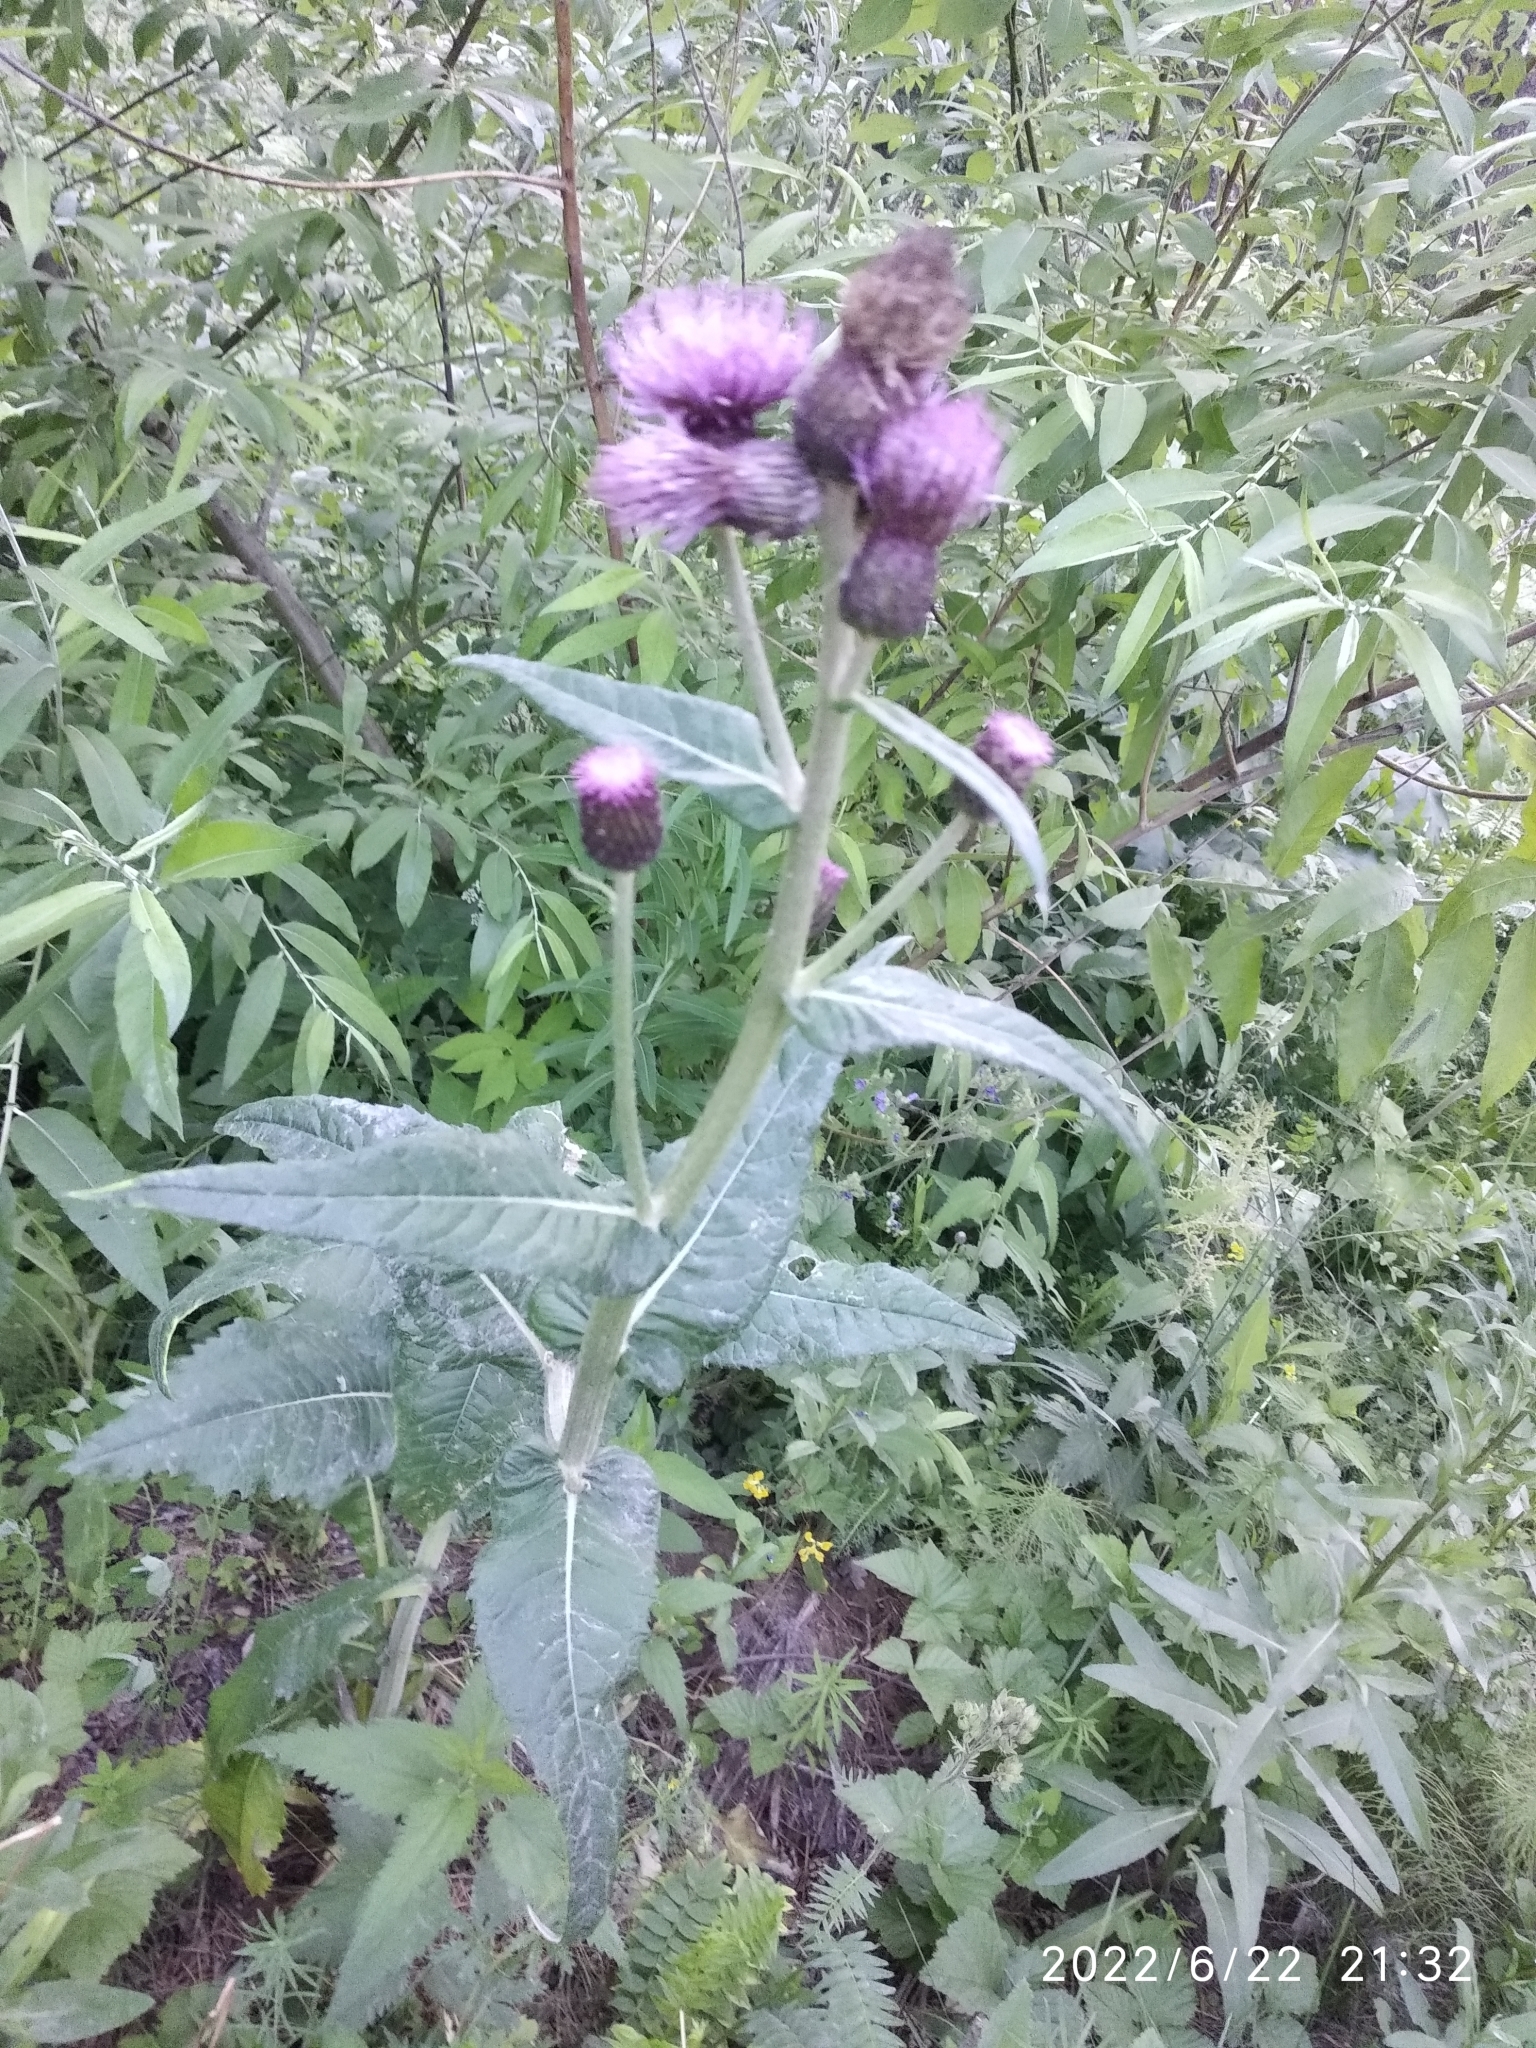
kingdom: Plantae
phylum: Tracheophyta
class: Magnoliopsida
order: Asterales
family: Asteraceae
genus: Cirsium
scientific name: Cirsium arvense
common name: Creeping thistle
